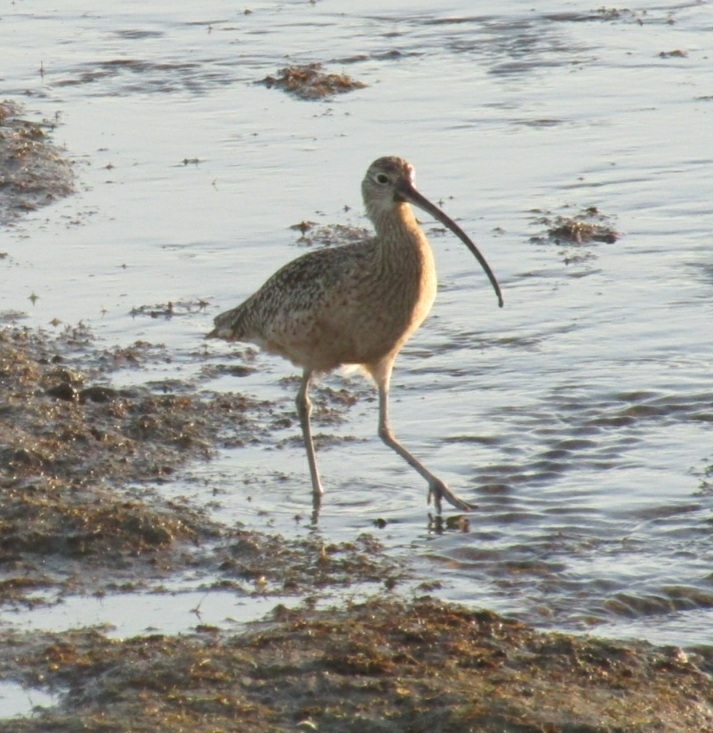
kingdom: Animalia
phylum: Chordata
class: Aves
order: Charadriiformes
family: Scolopacidae
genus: Numenius
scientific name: Numenius americanus
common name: Long-billed curlew
